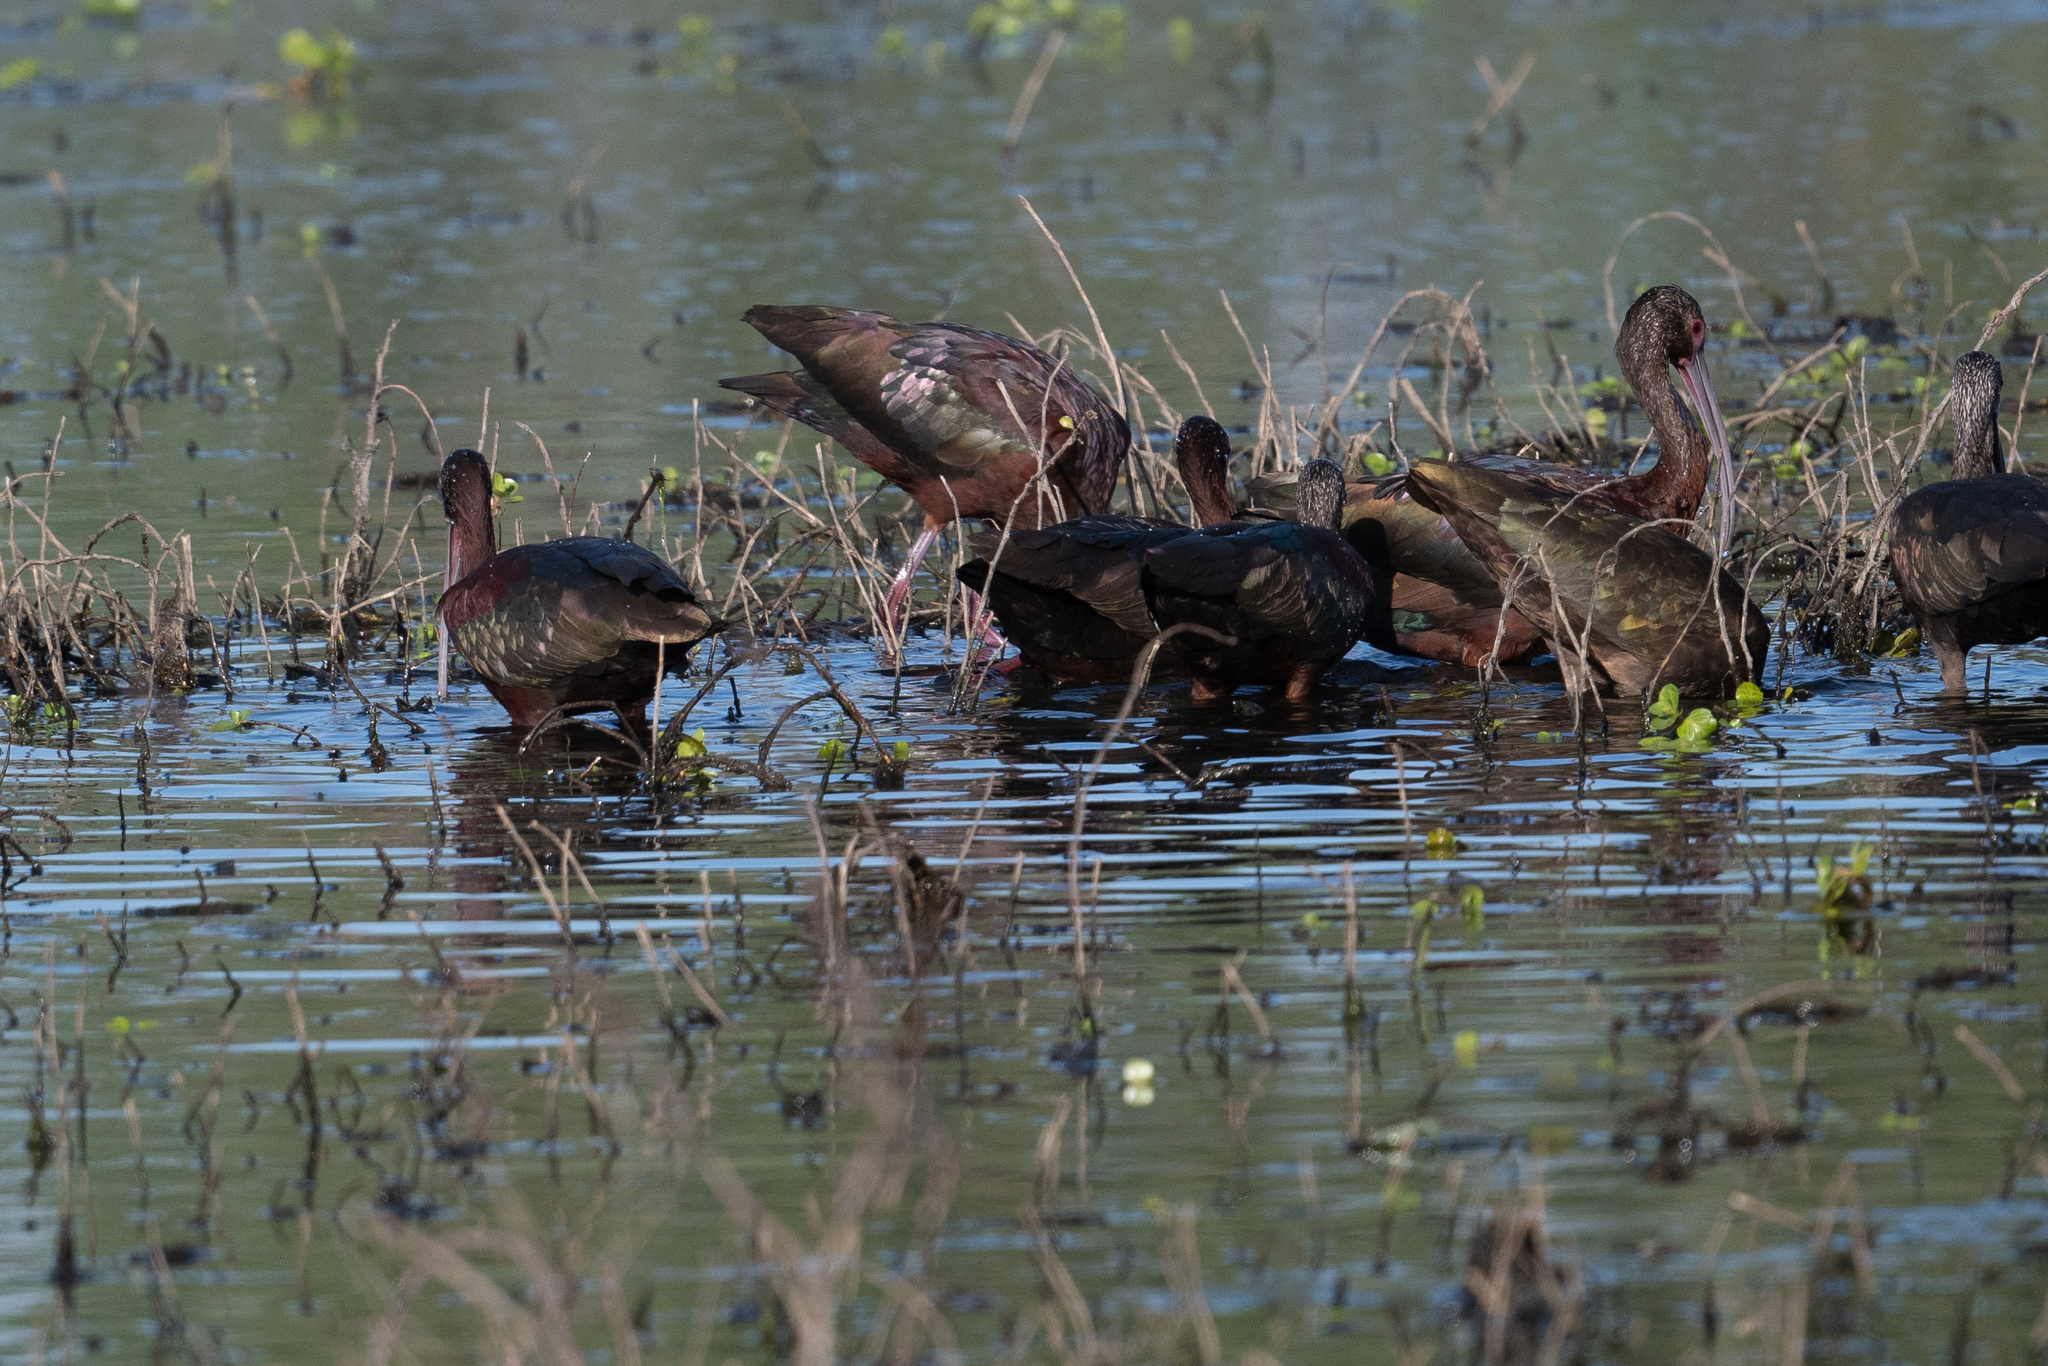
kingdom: Animalia
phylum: Chordata
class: Aves
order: Pelecaniformes
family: Threskiornithidae
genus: Plegadis
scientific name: Plegadis chihi
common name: White-faced ibis
